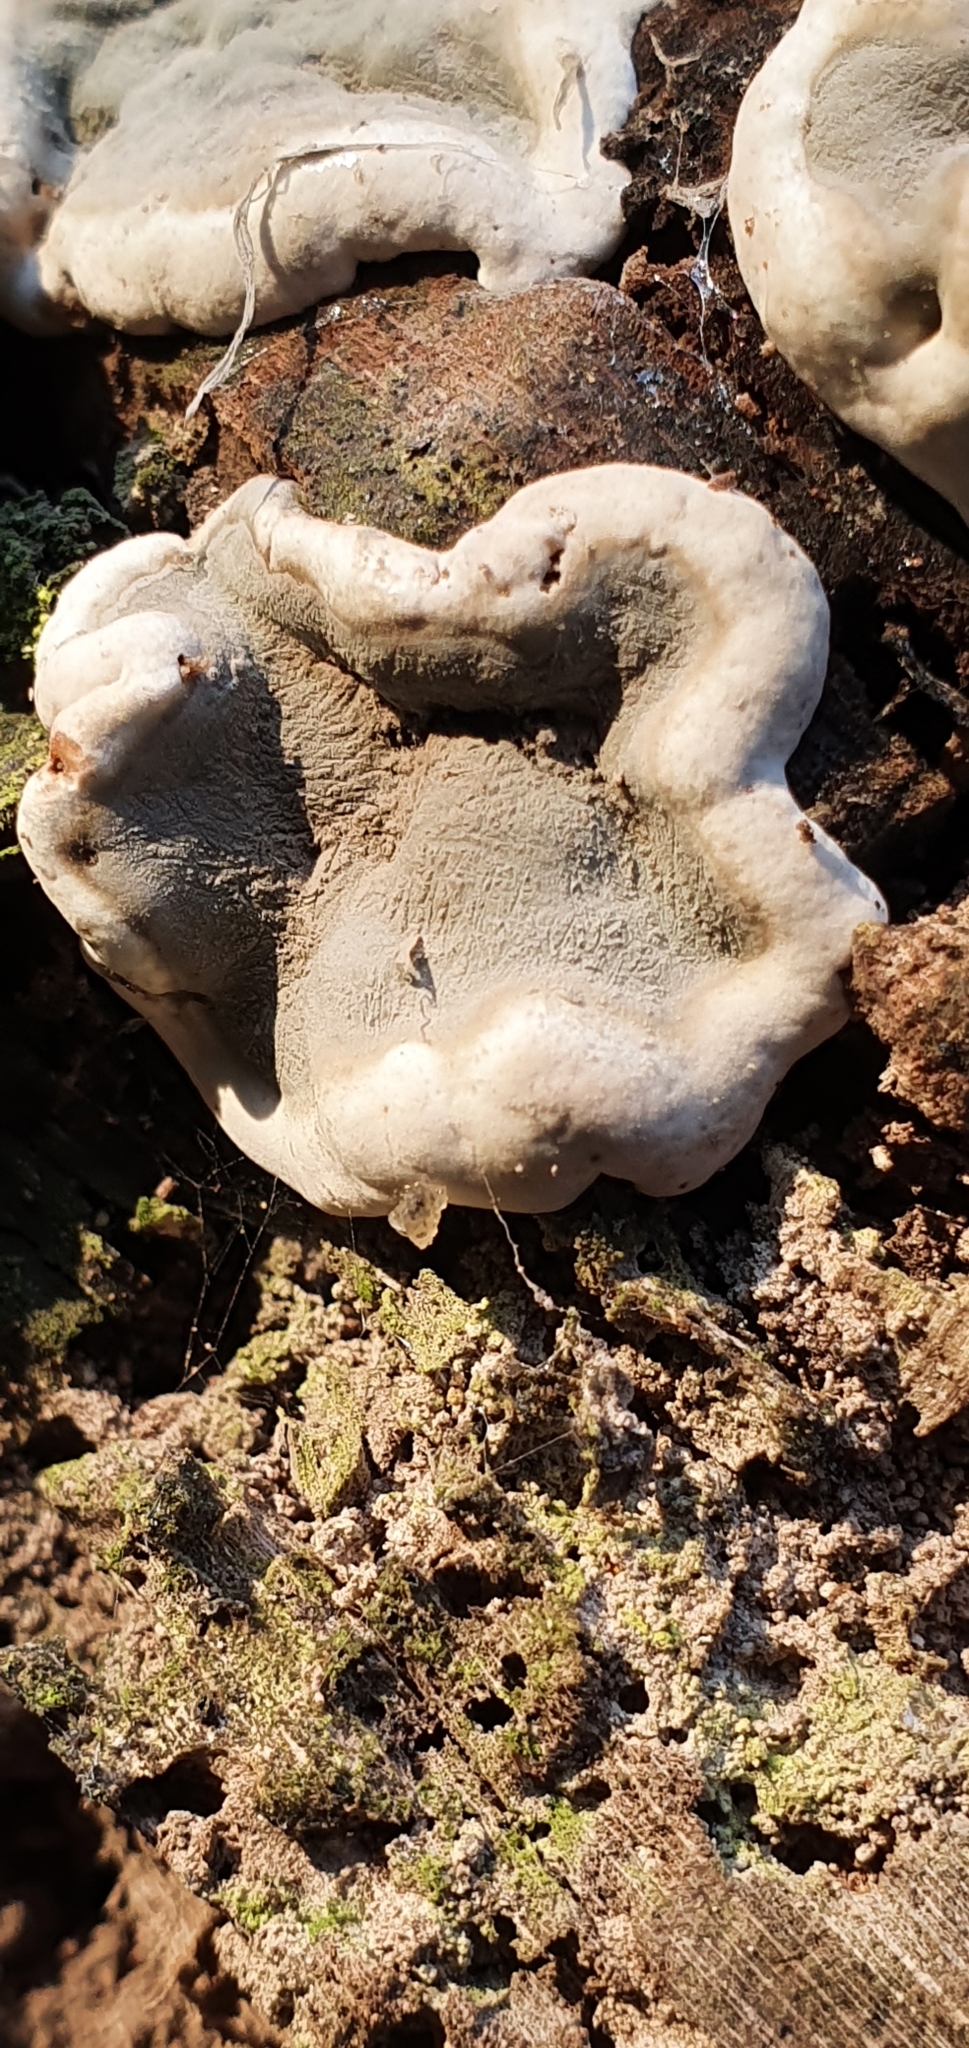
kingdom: Fungi
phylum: Ascomycota
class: Sordariomycetes
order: Xylariales
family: Xylariaceae
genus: Kretzschmaria
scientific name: Kretzschmaria deusta
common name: Brittle cinder
